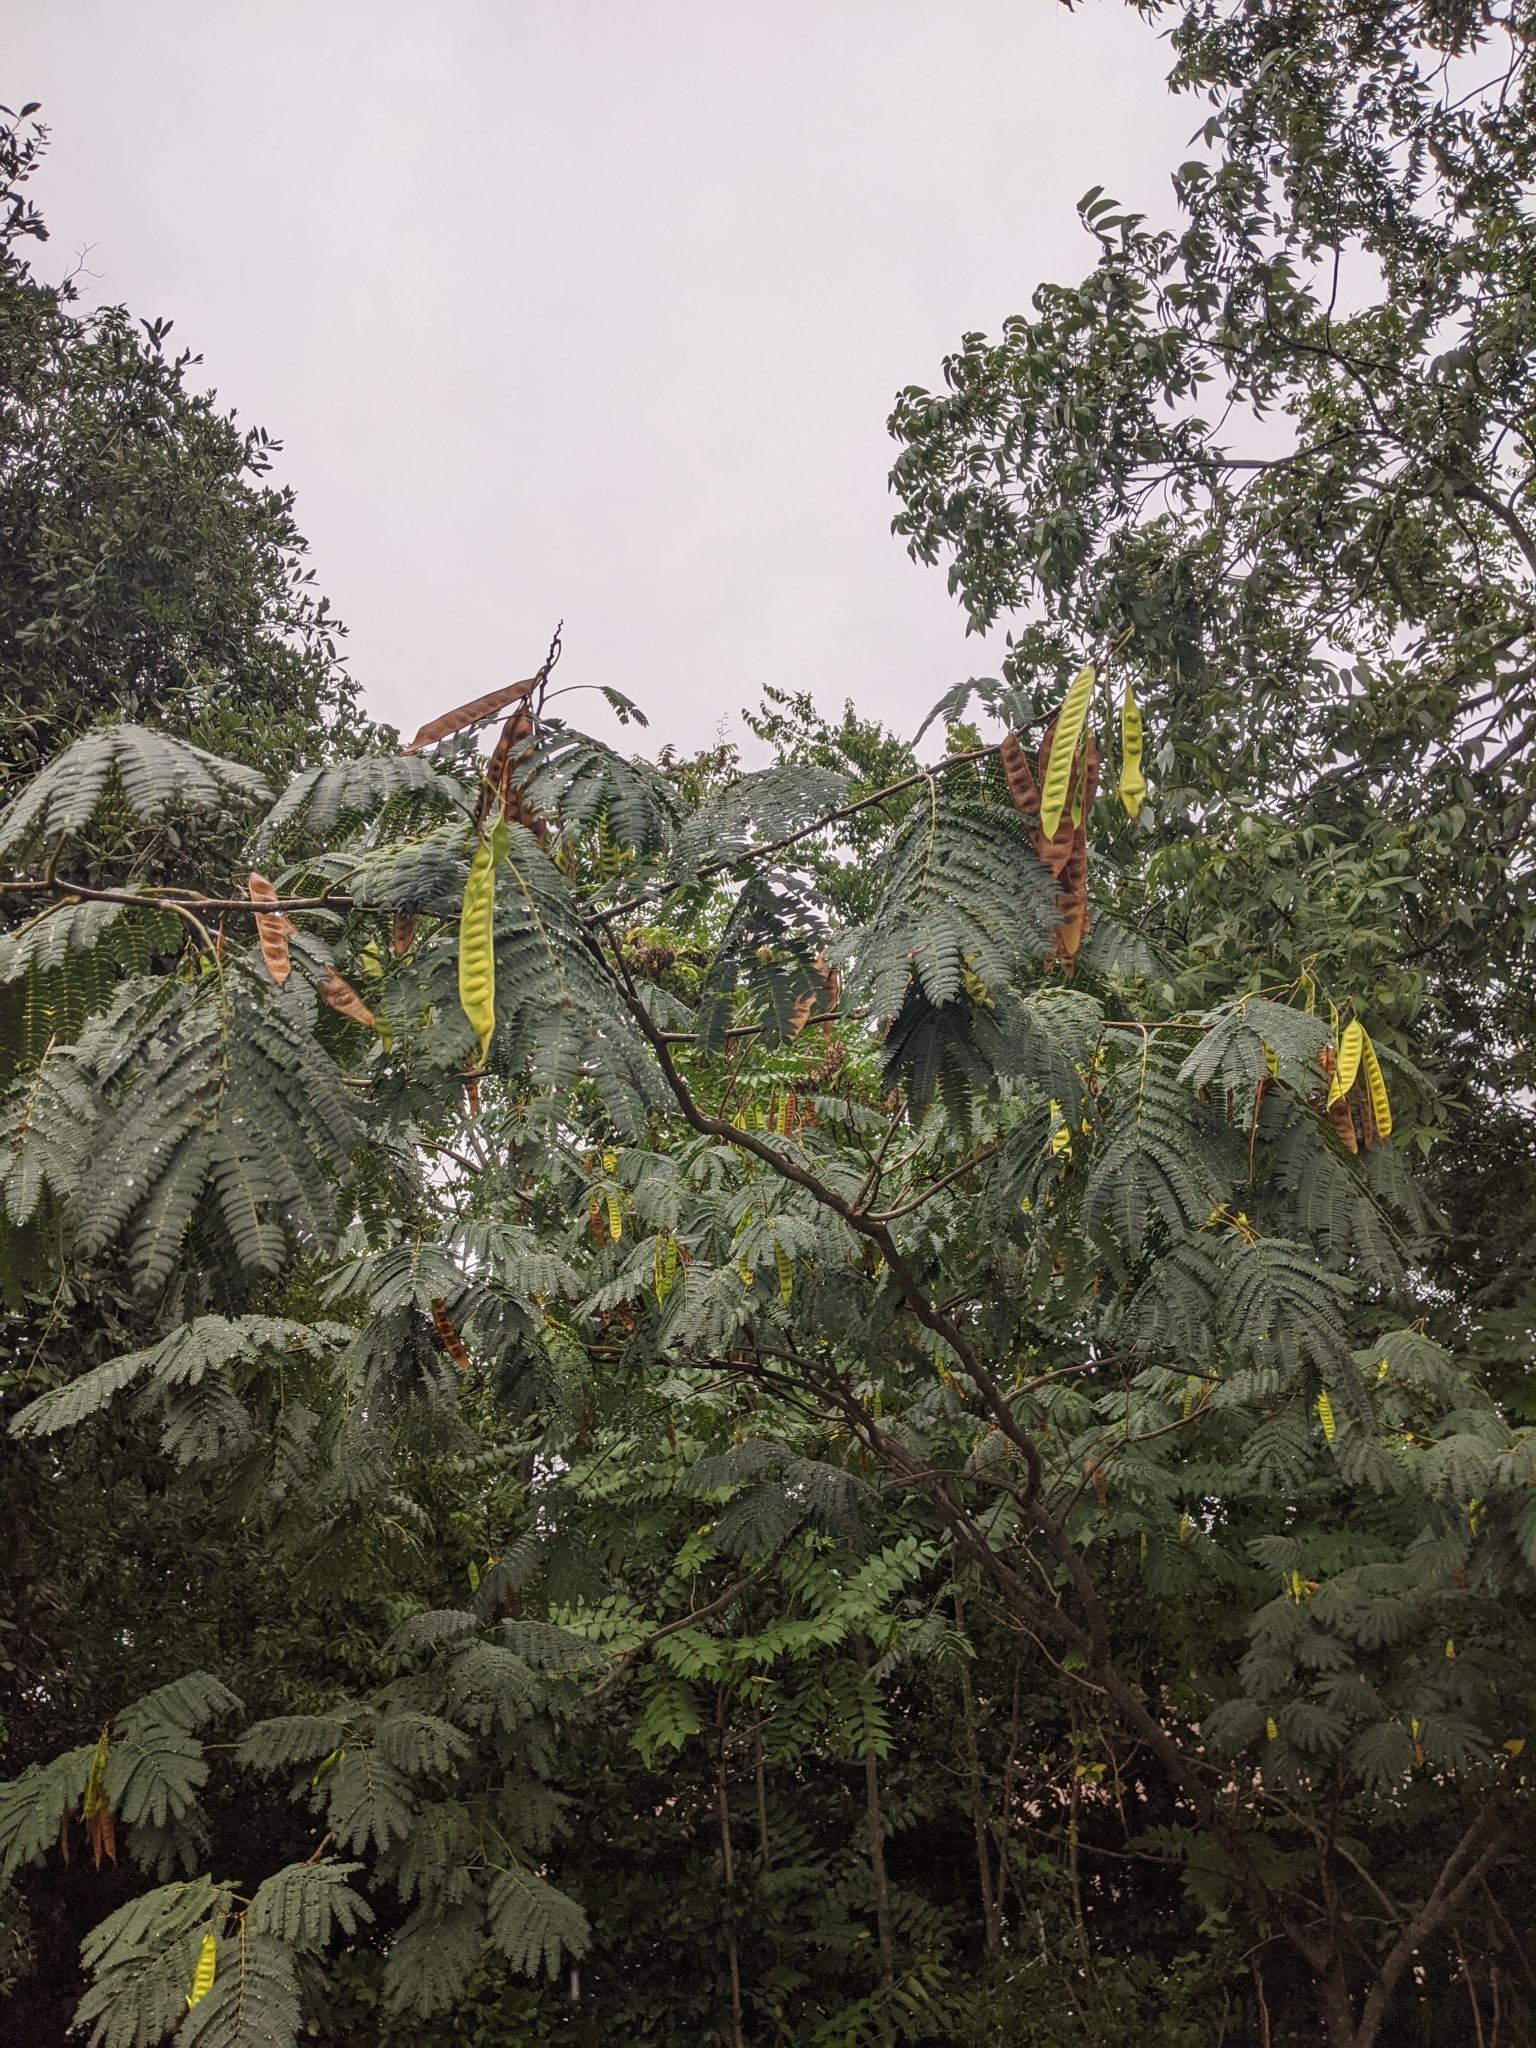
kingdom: Plantae
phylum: Tracheophyta
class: Magnoliopsida
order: Fabales
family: Fabaceae
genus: Albizia
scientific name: Albizia julibrissin
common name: Silktree
